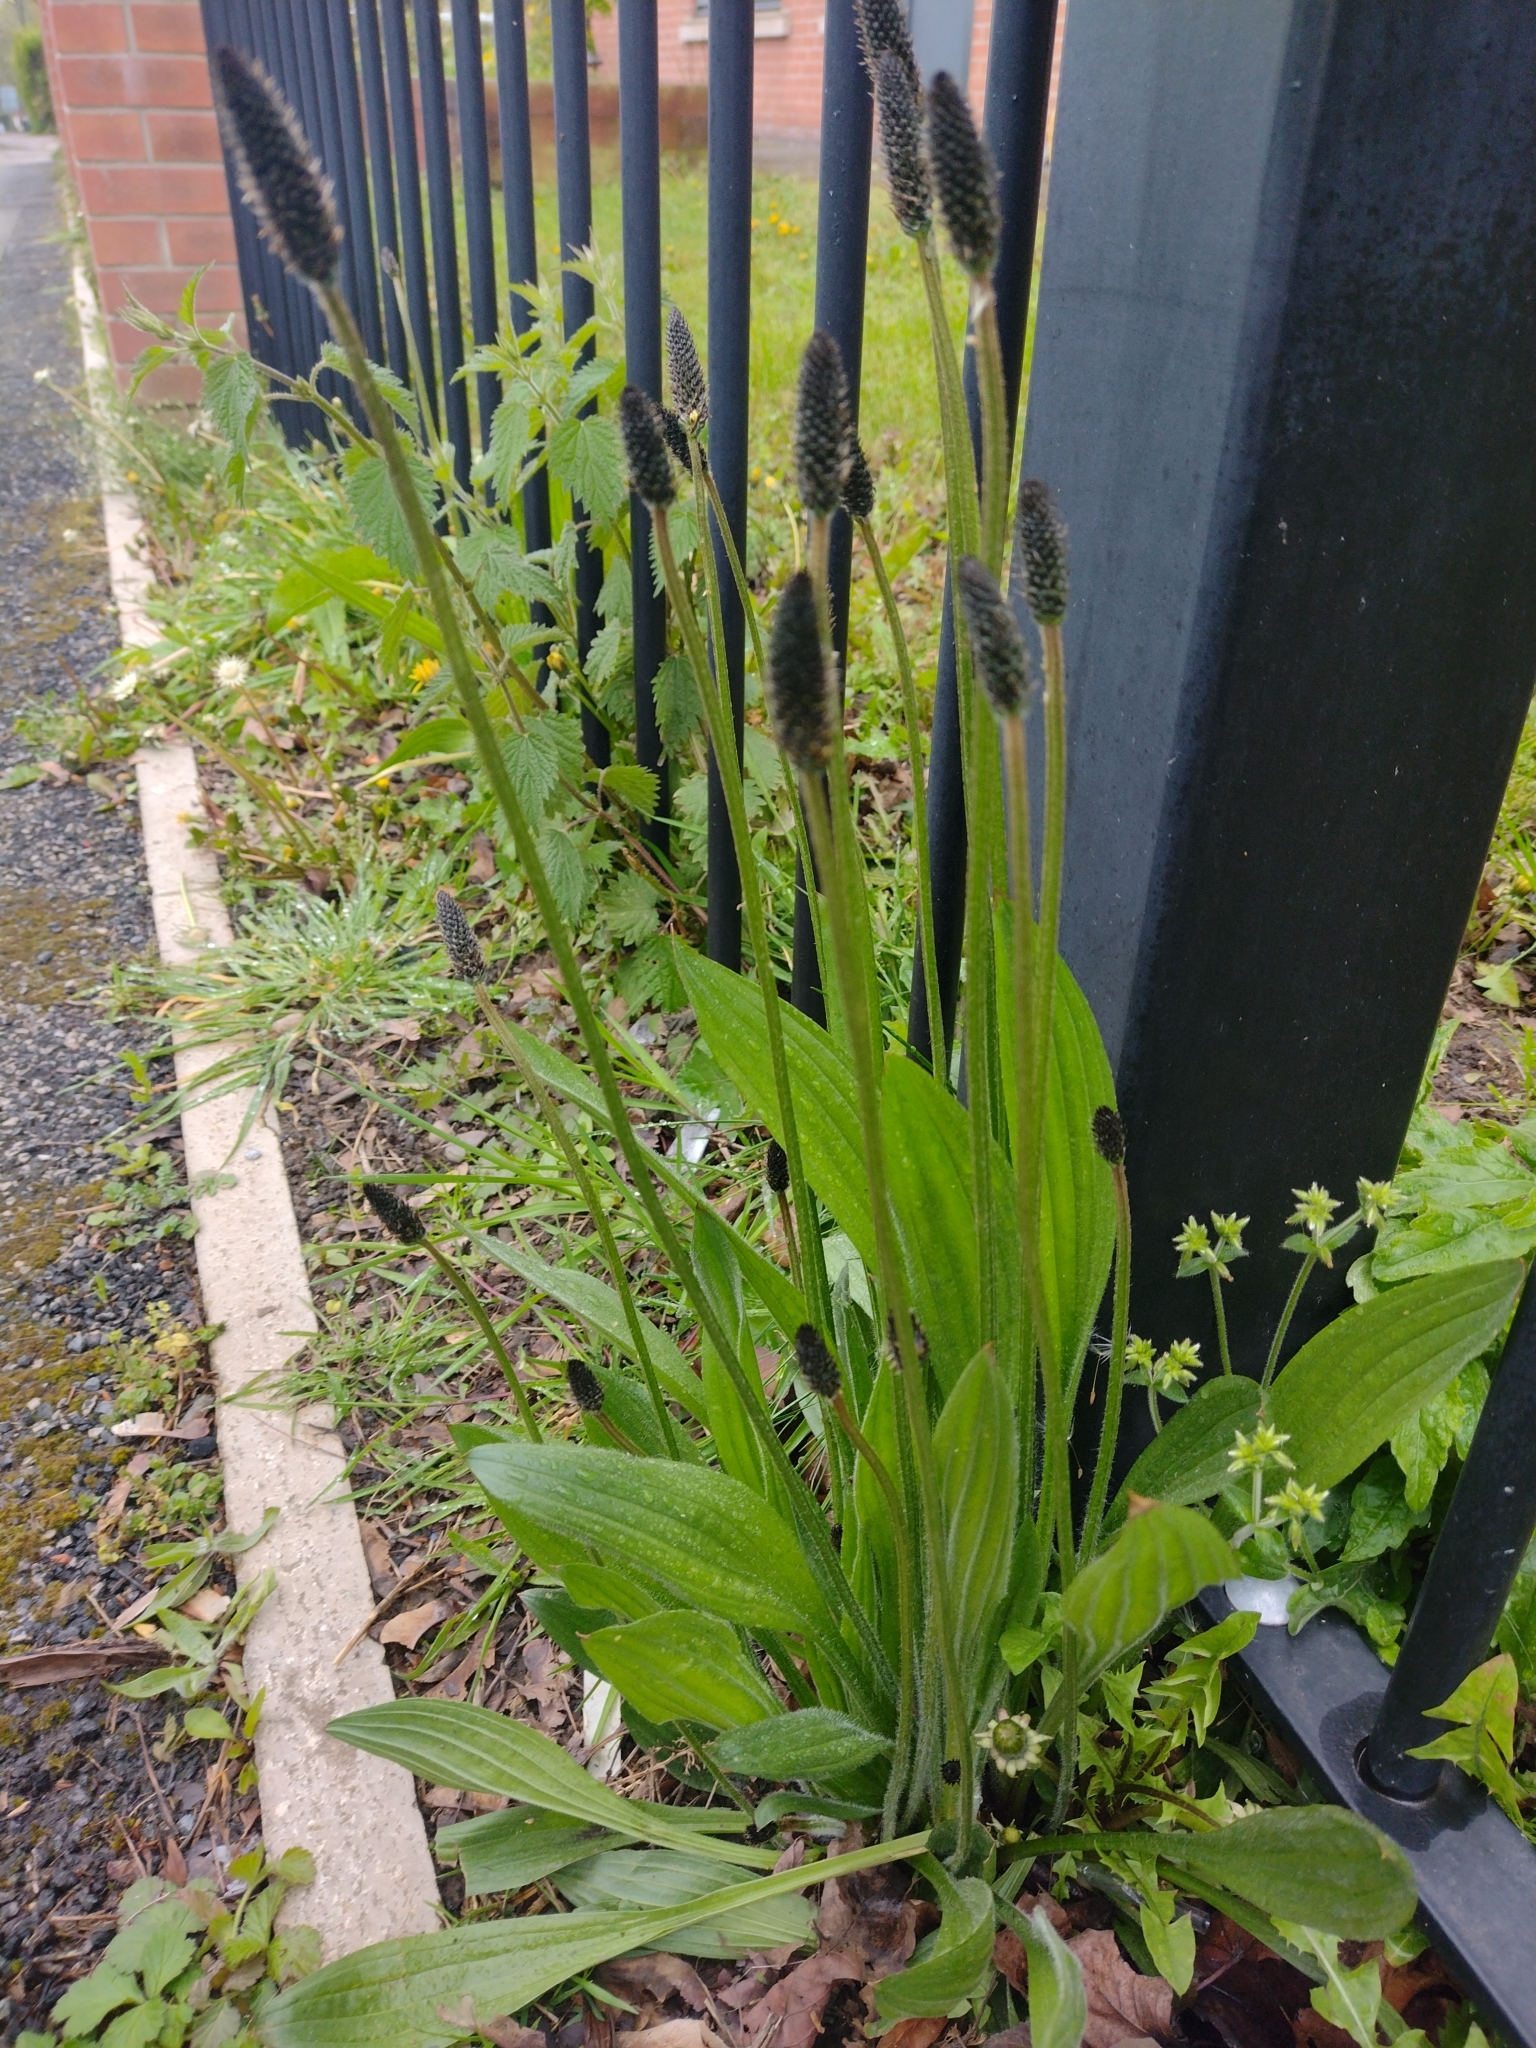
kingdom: Plantae
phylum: Tracheophyta
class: Magnoliopsida
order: Lamiales
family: Plantaginaceae
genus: Plantago
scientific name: Plantago lanceolata
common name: Ribwort plantain
